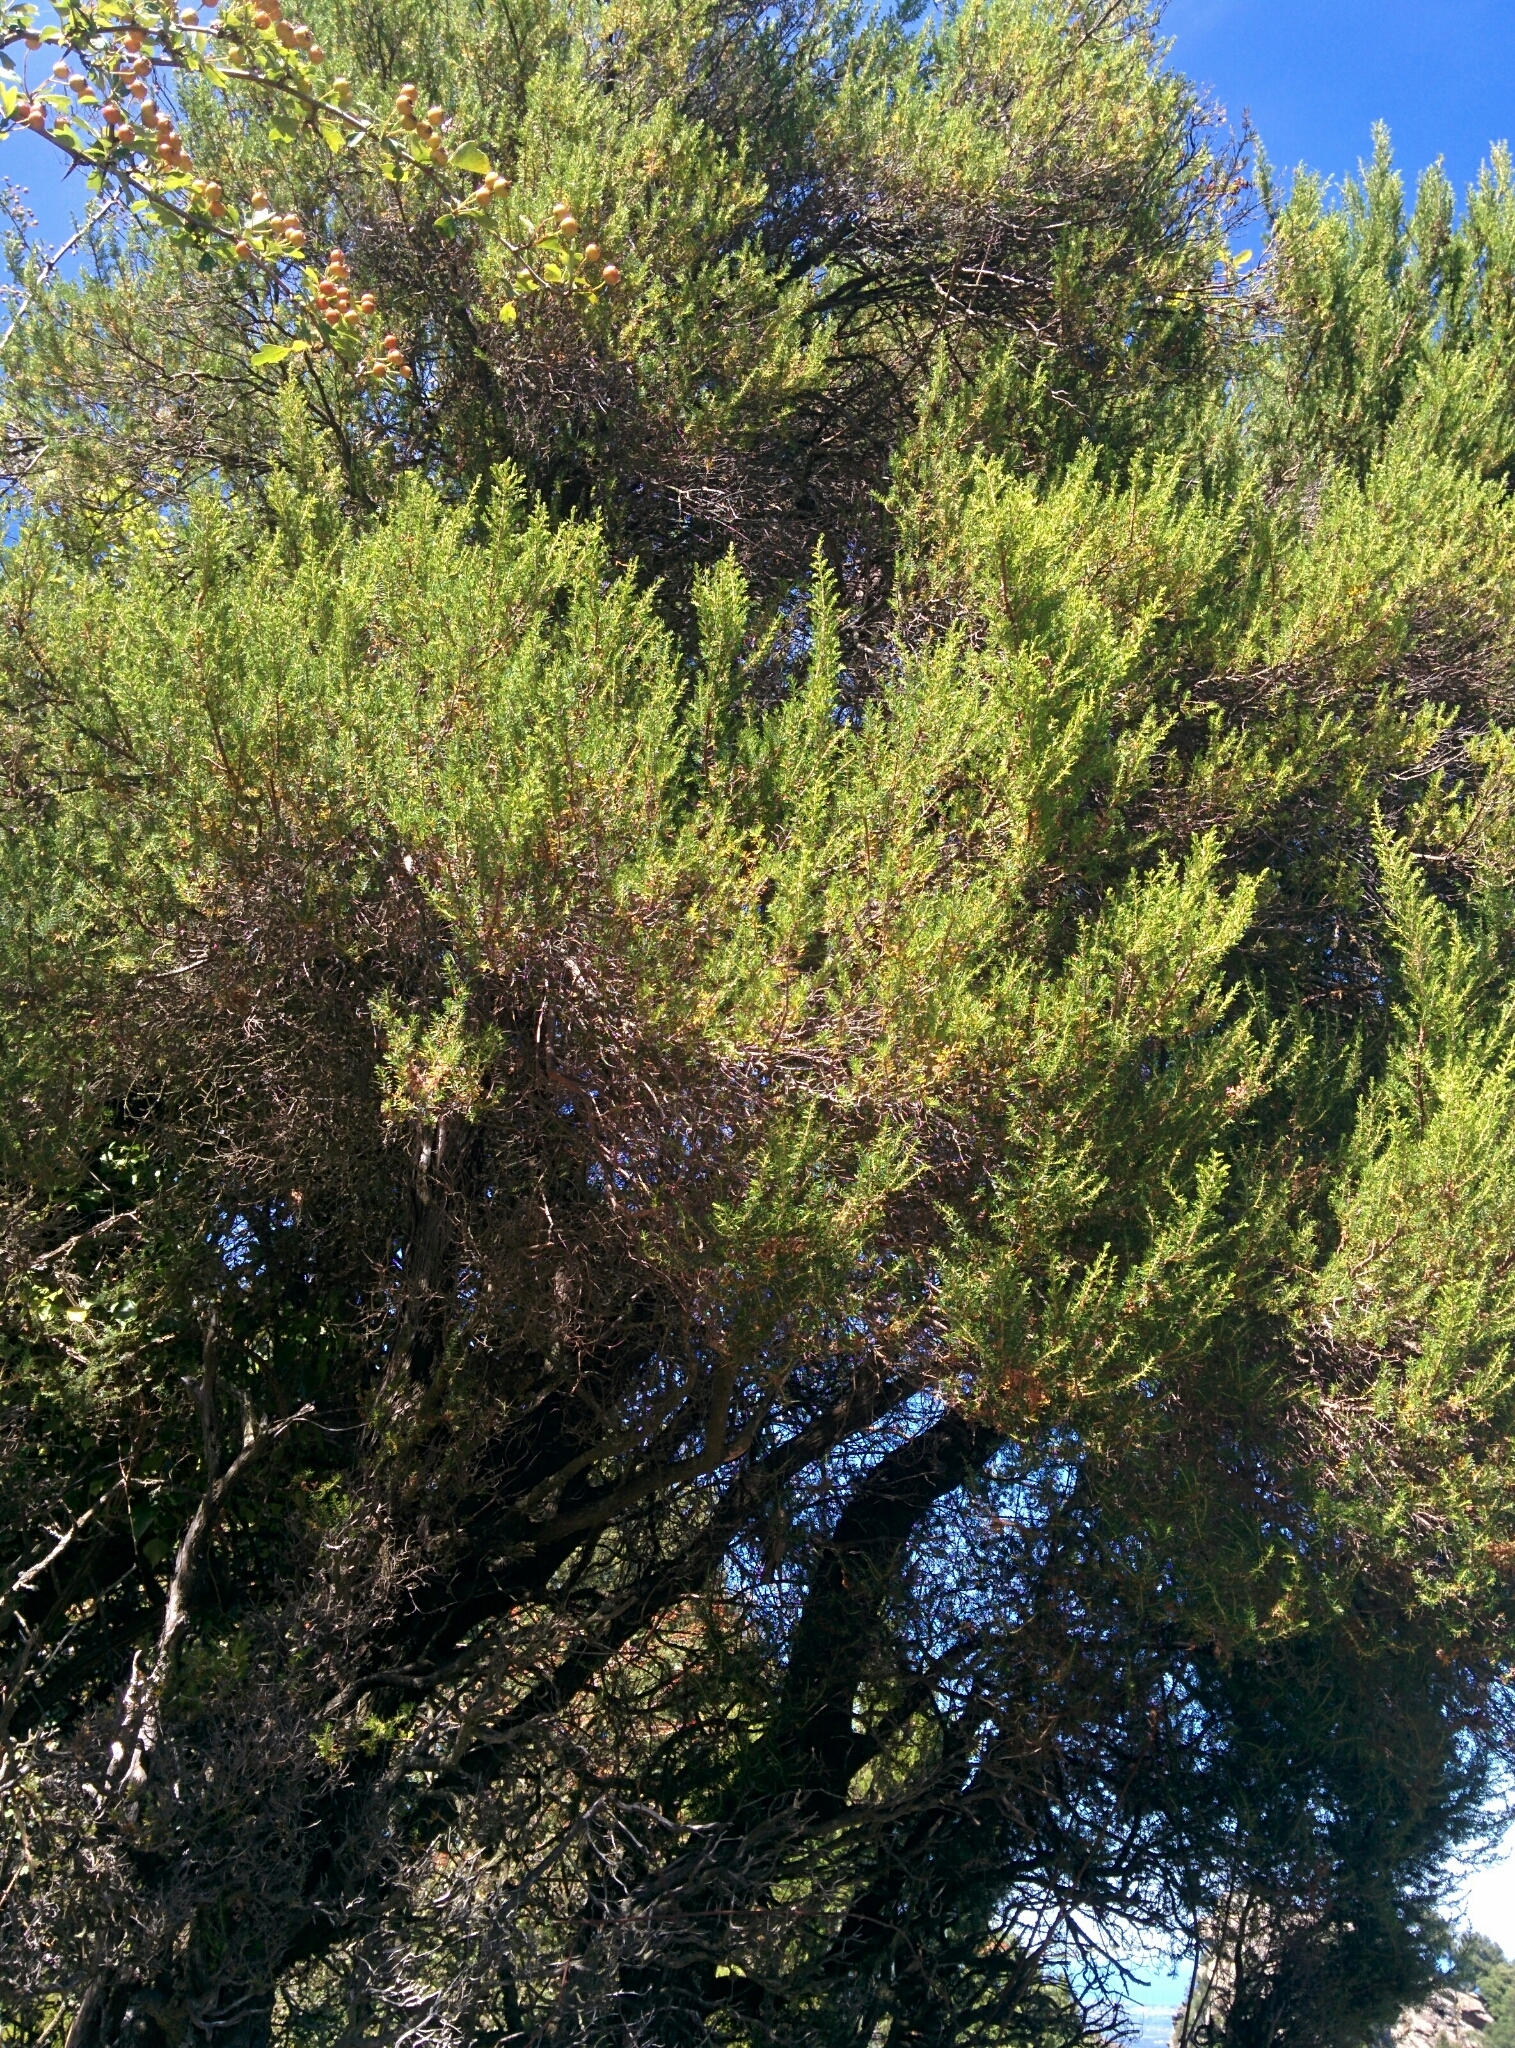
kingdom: Plantae
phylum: Tracheophyta
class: Magnoliopsida
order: Ericales
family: Ericaceae
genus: Erica
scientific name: Erica arborea
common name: Tree heath
